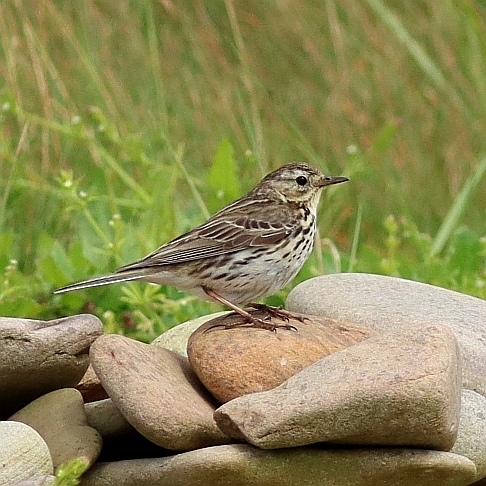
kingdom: Animalia
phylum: Chordata
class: Aves
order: Passeriformes
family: Motacillidae
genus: Anthus
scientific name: Anthus pratensis
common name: Meadow pipit
